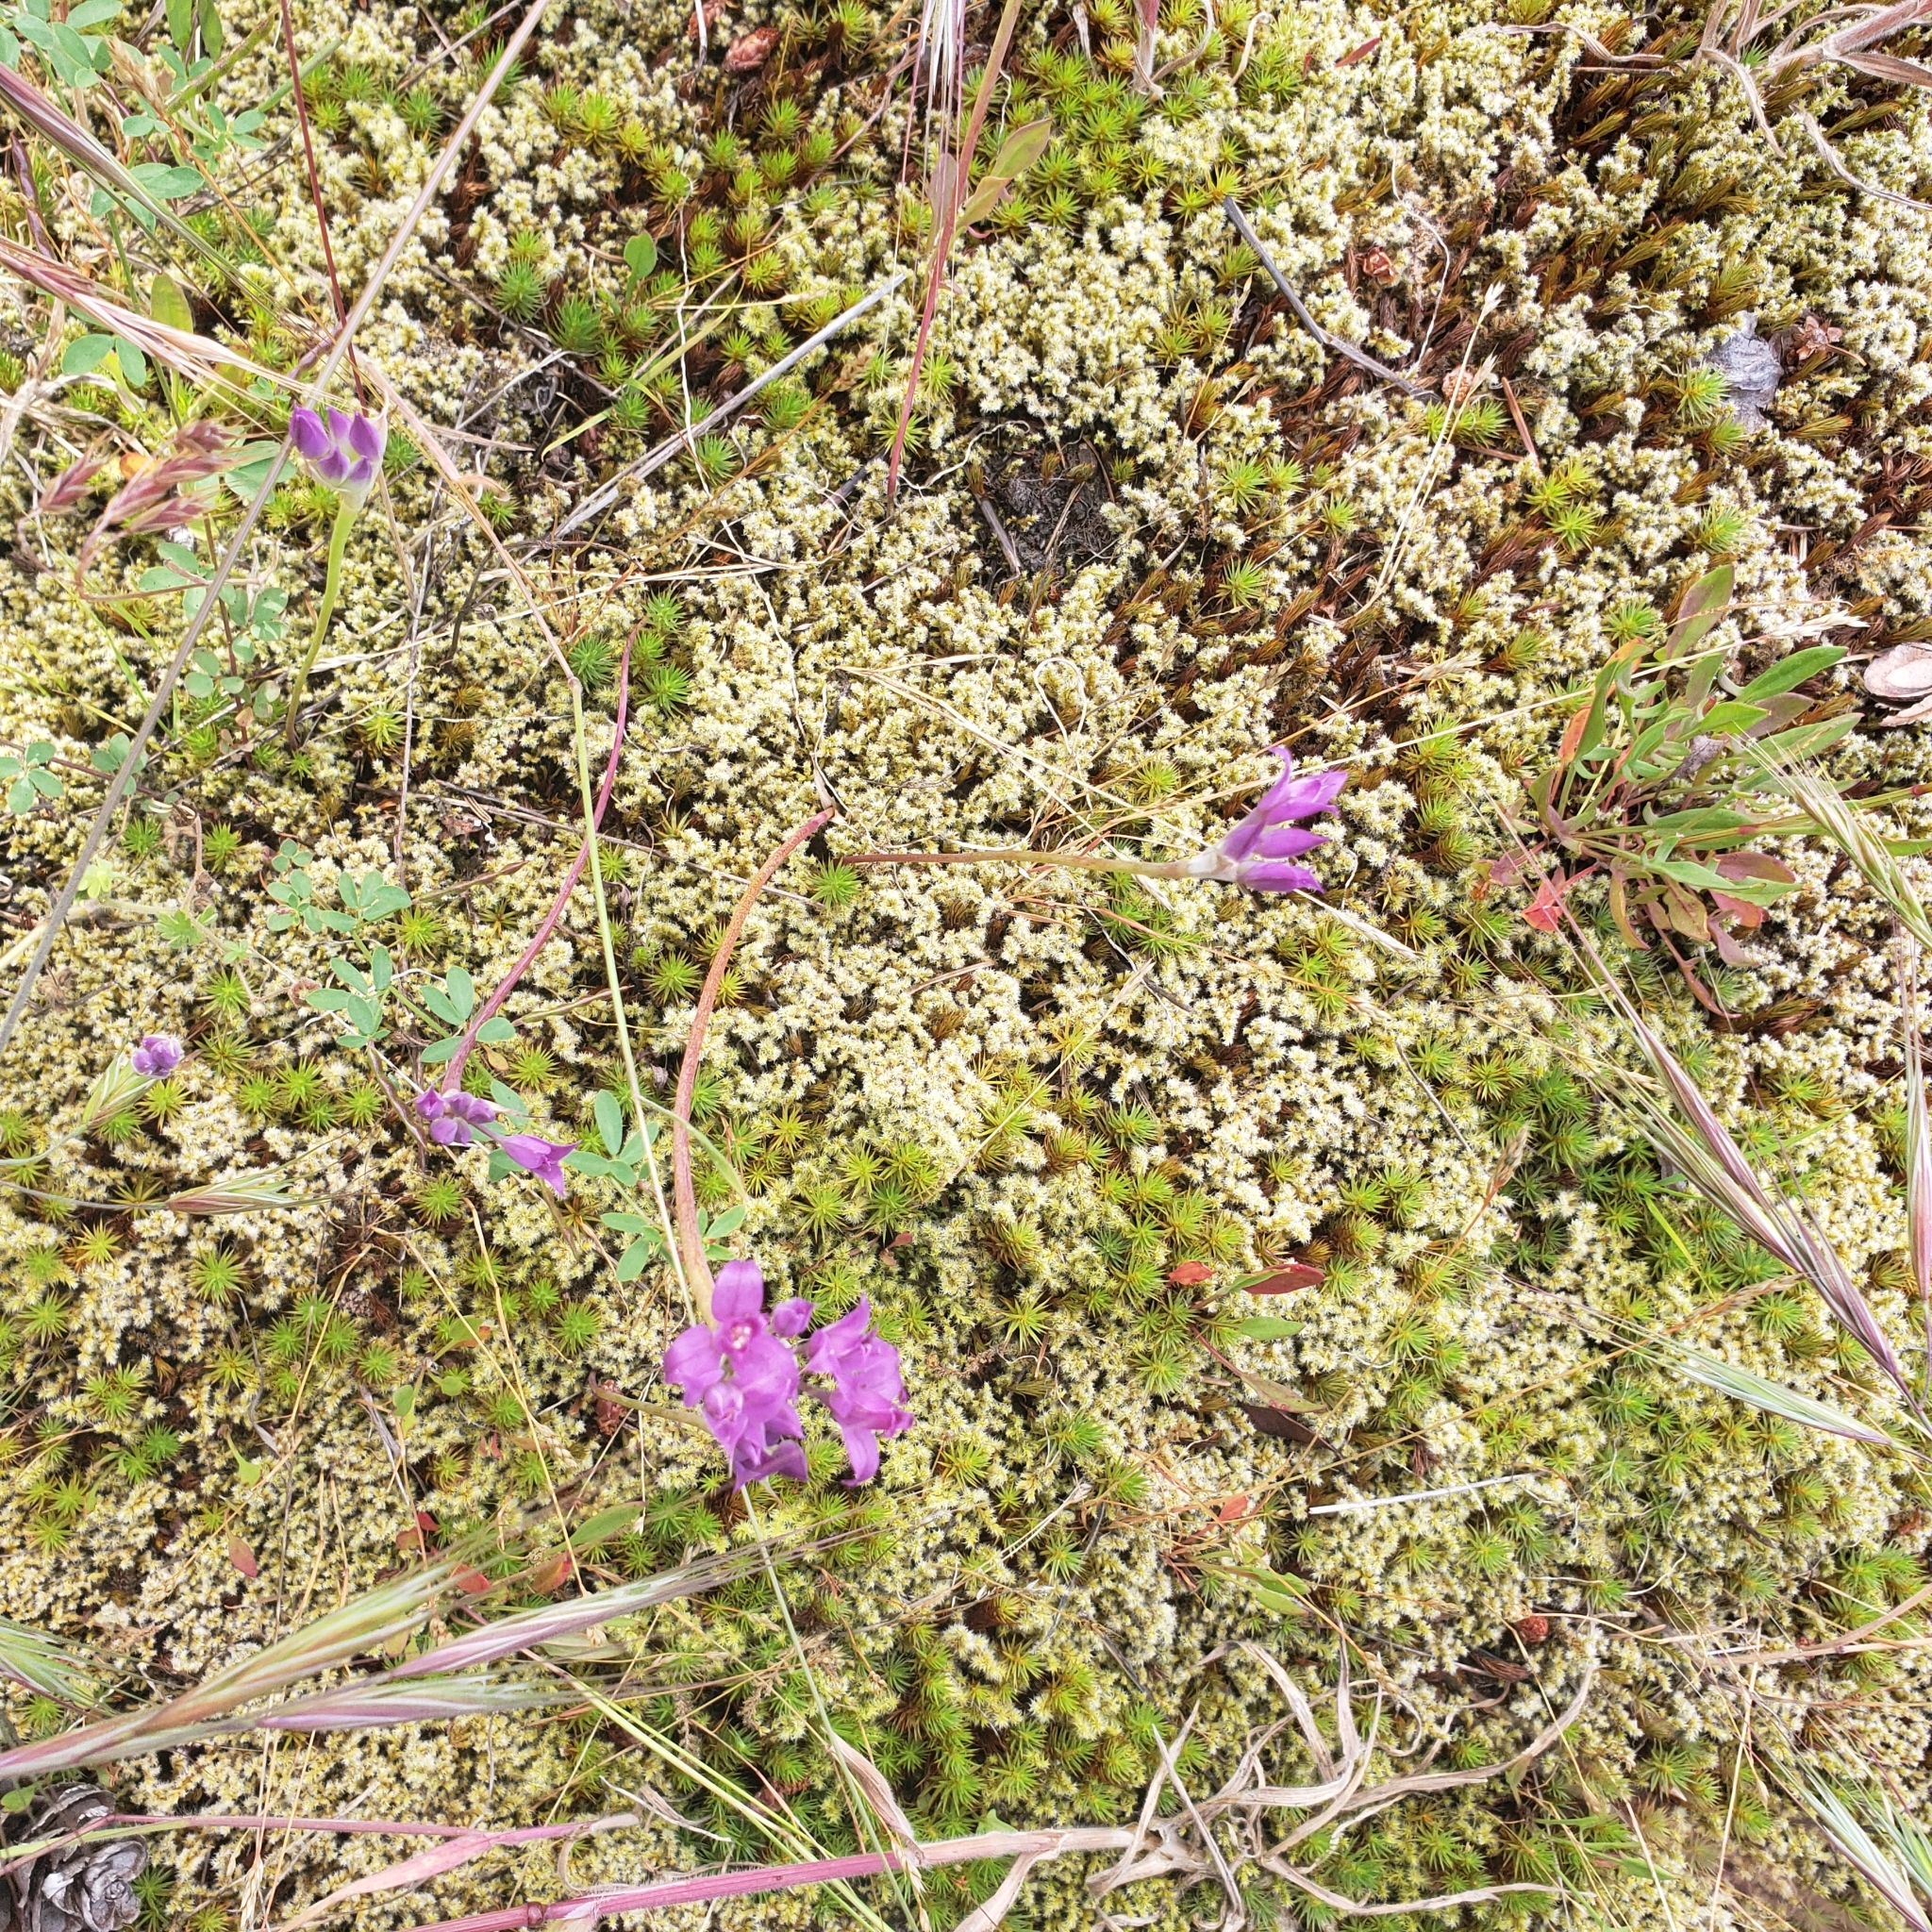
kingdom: Plantae
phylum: Tracheophyta
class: Liliopsida
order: Asparagales
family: Amaryllidaceae
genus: Allium
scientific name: Allium acuminatum
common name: Hooker's onion
